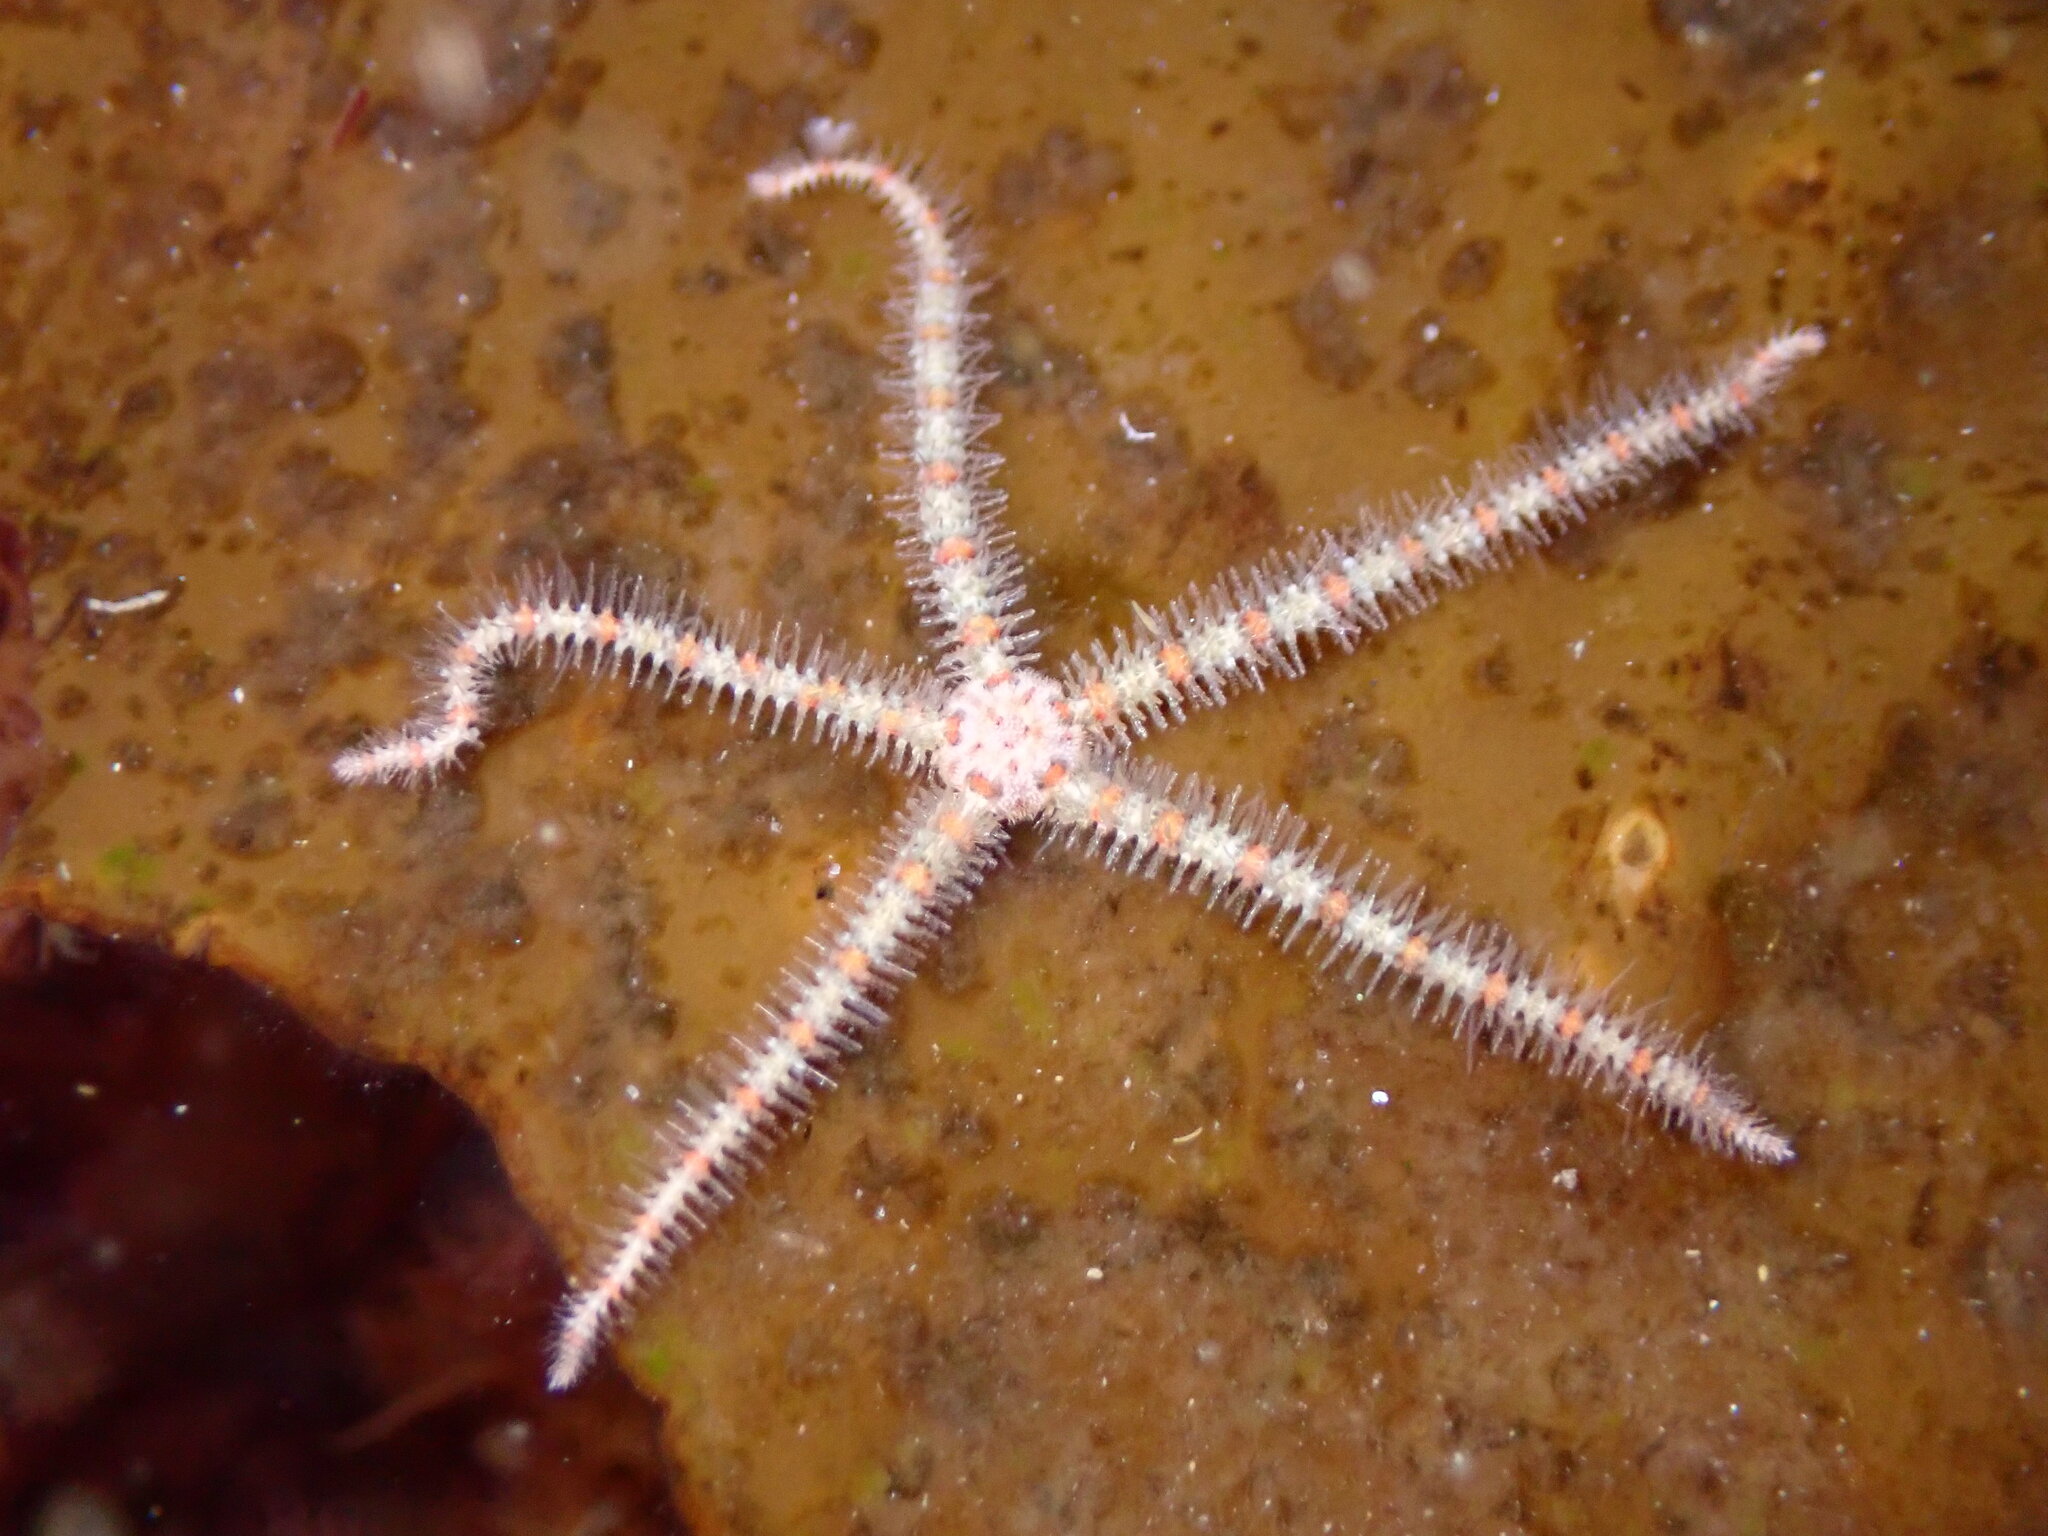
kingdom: Animalia
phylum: Echinodermata
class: Ophiuroidea
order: Amphilepidida
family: Ophiotrichidae
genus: Ophiothrix
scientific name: Ophiothrix spiculata
